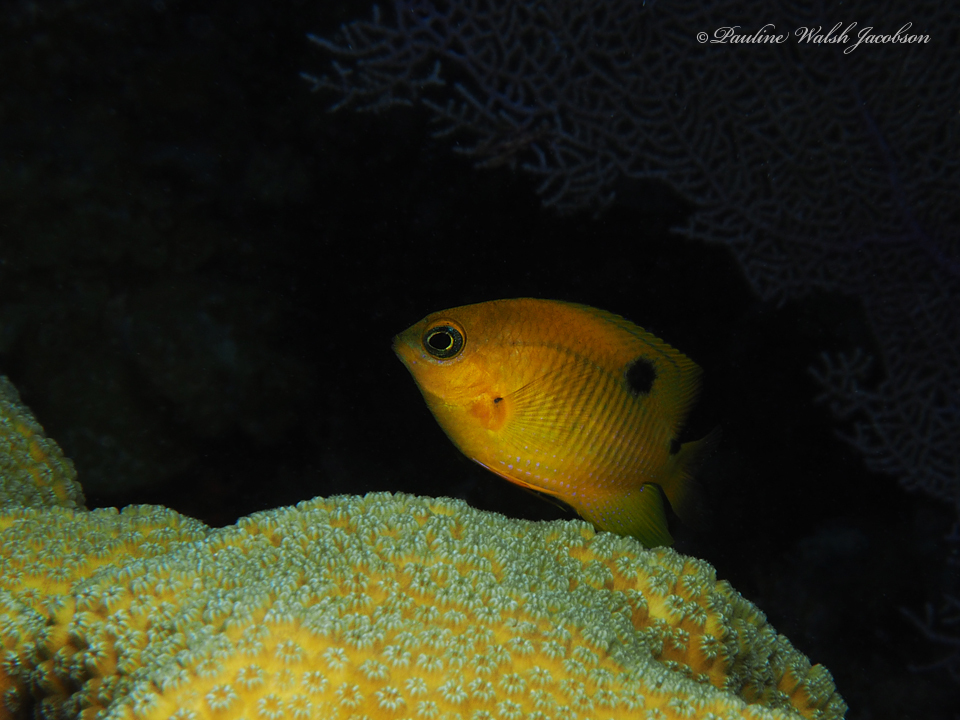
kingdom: Animalia
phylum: Chordata
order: Perciformes
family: Pomacentridae
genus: Stegastes
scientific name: Stegastes planifrons
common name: Threespot damselfish
